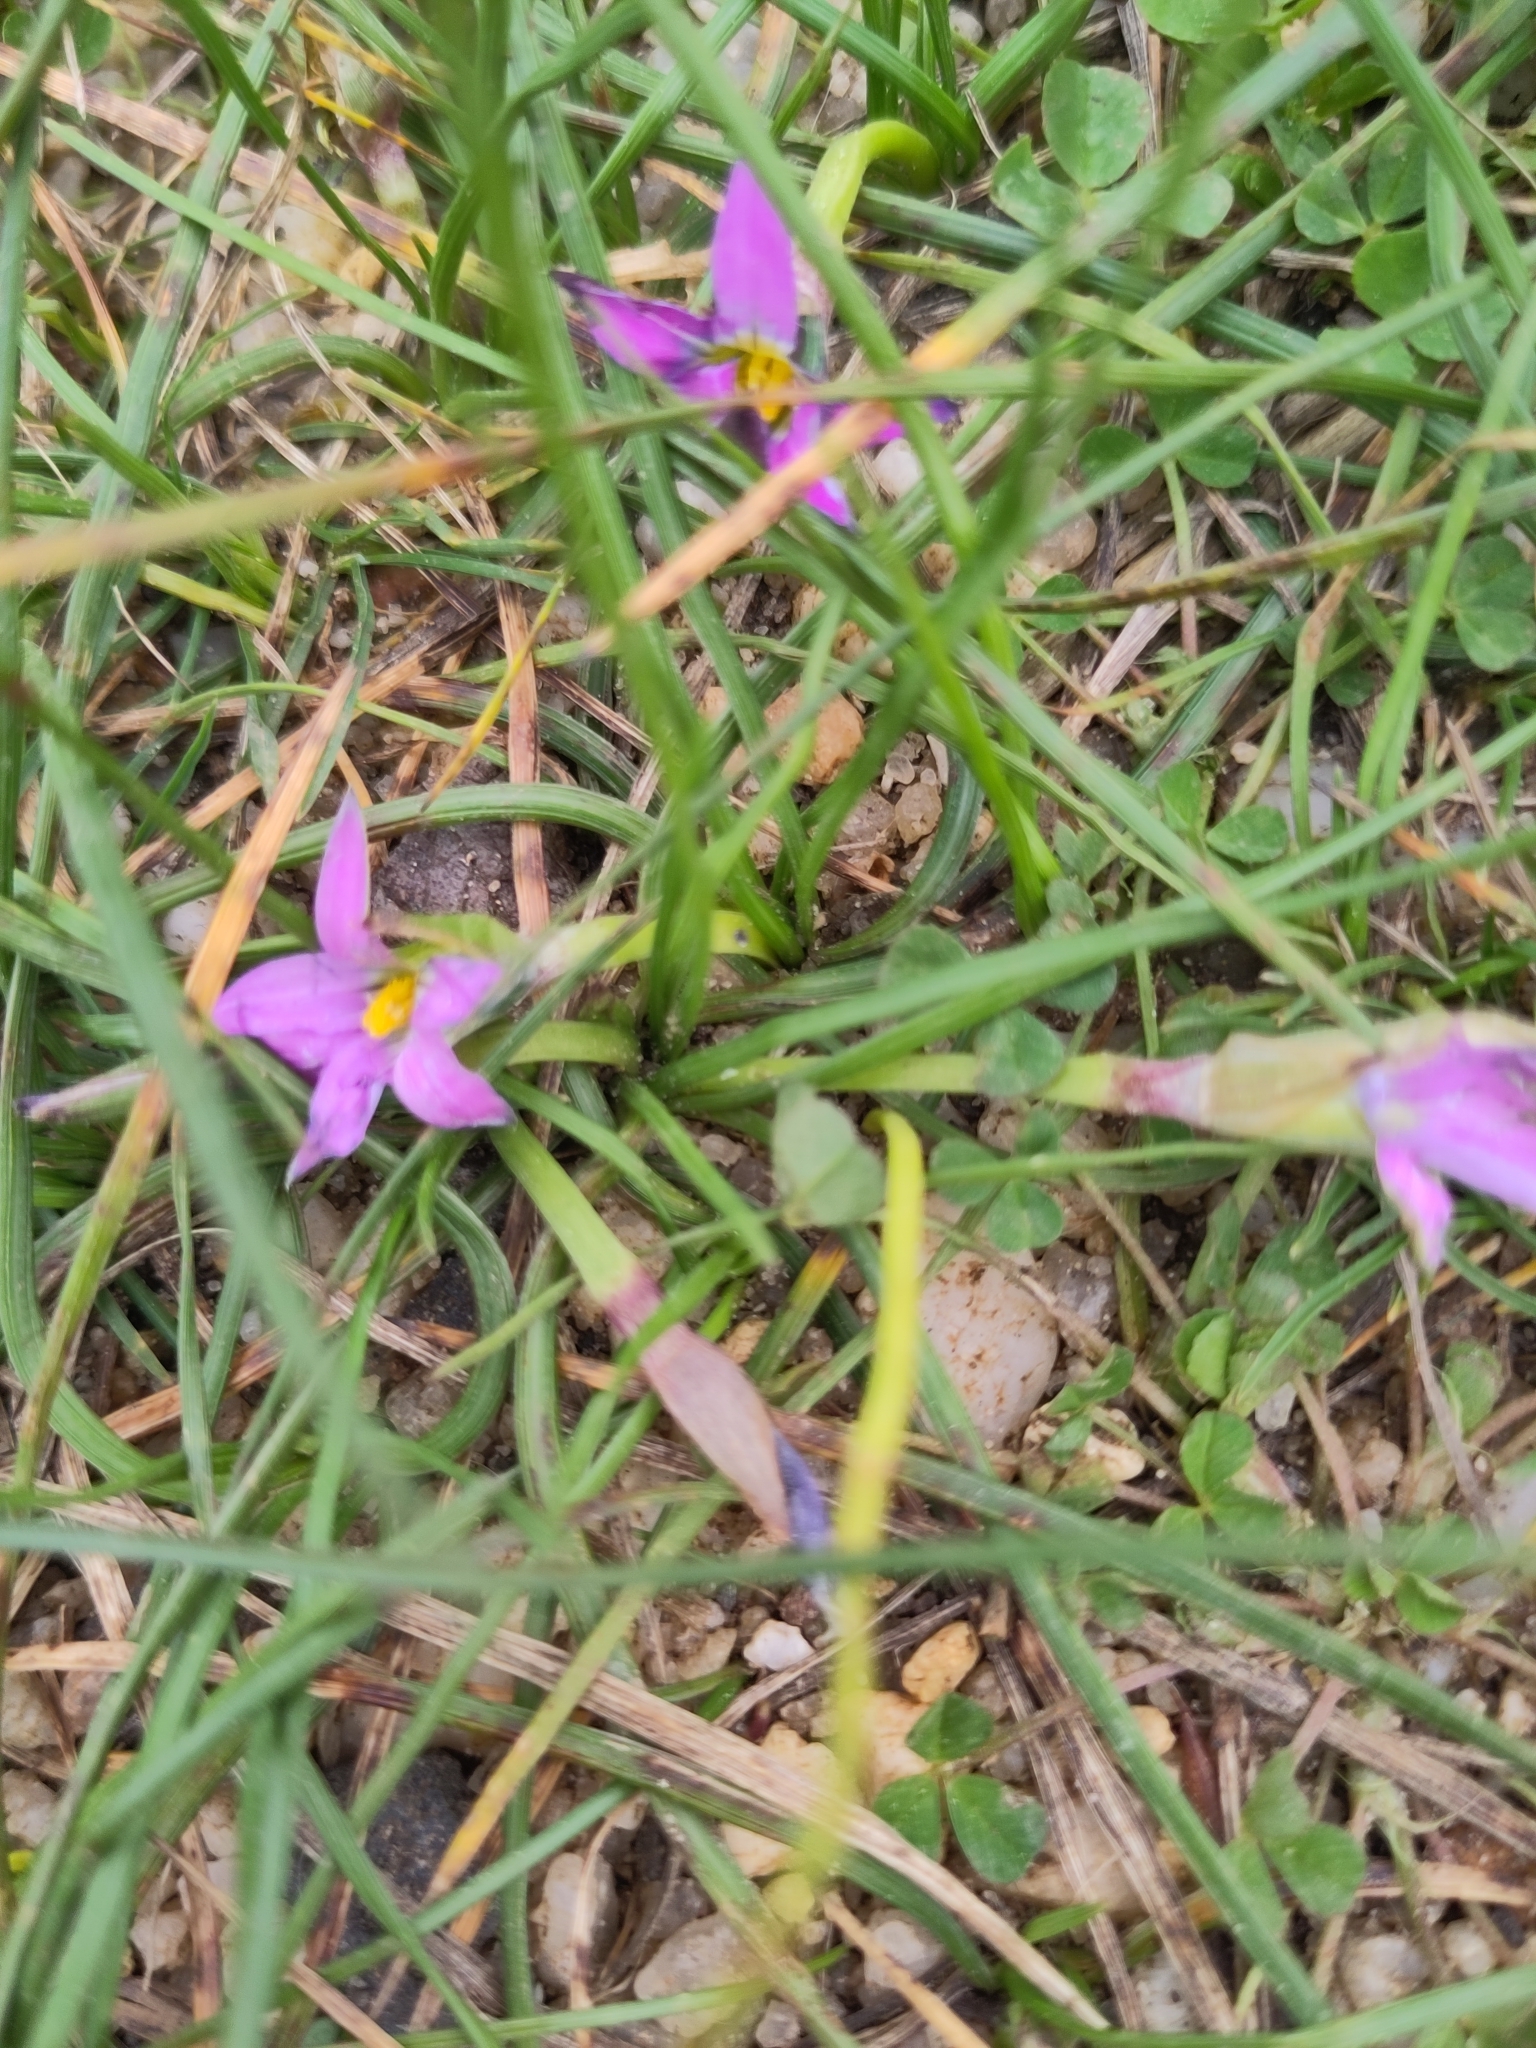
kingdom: Plantae
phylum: Tracheophyta
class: Liliopsida
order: Asparagales
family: Iridaceae
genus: Romulea
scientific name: Romulea rosea
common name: Oniongrass
